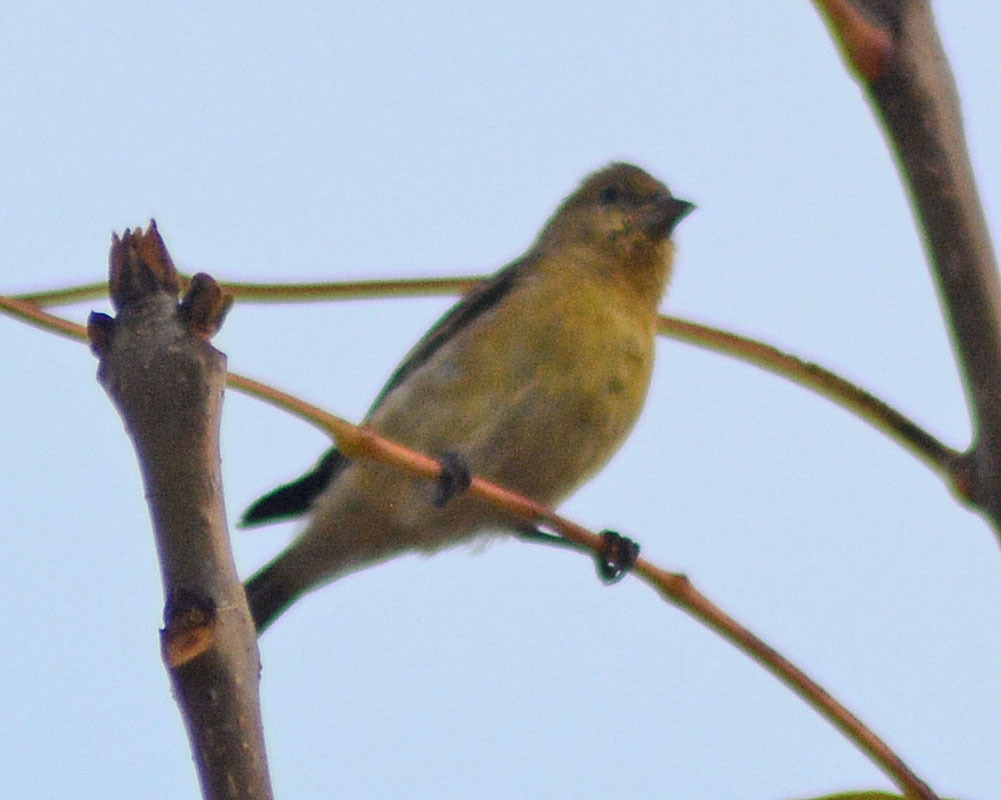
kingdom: Animalia
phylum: Chordata
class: Aves
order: Passeriformes
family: Fringillidae
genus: Spinus
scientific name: Spinus psaltria
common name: Lesser goldfinch
